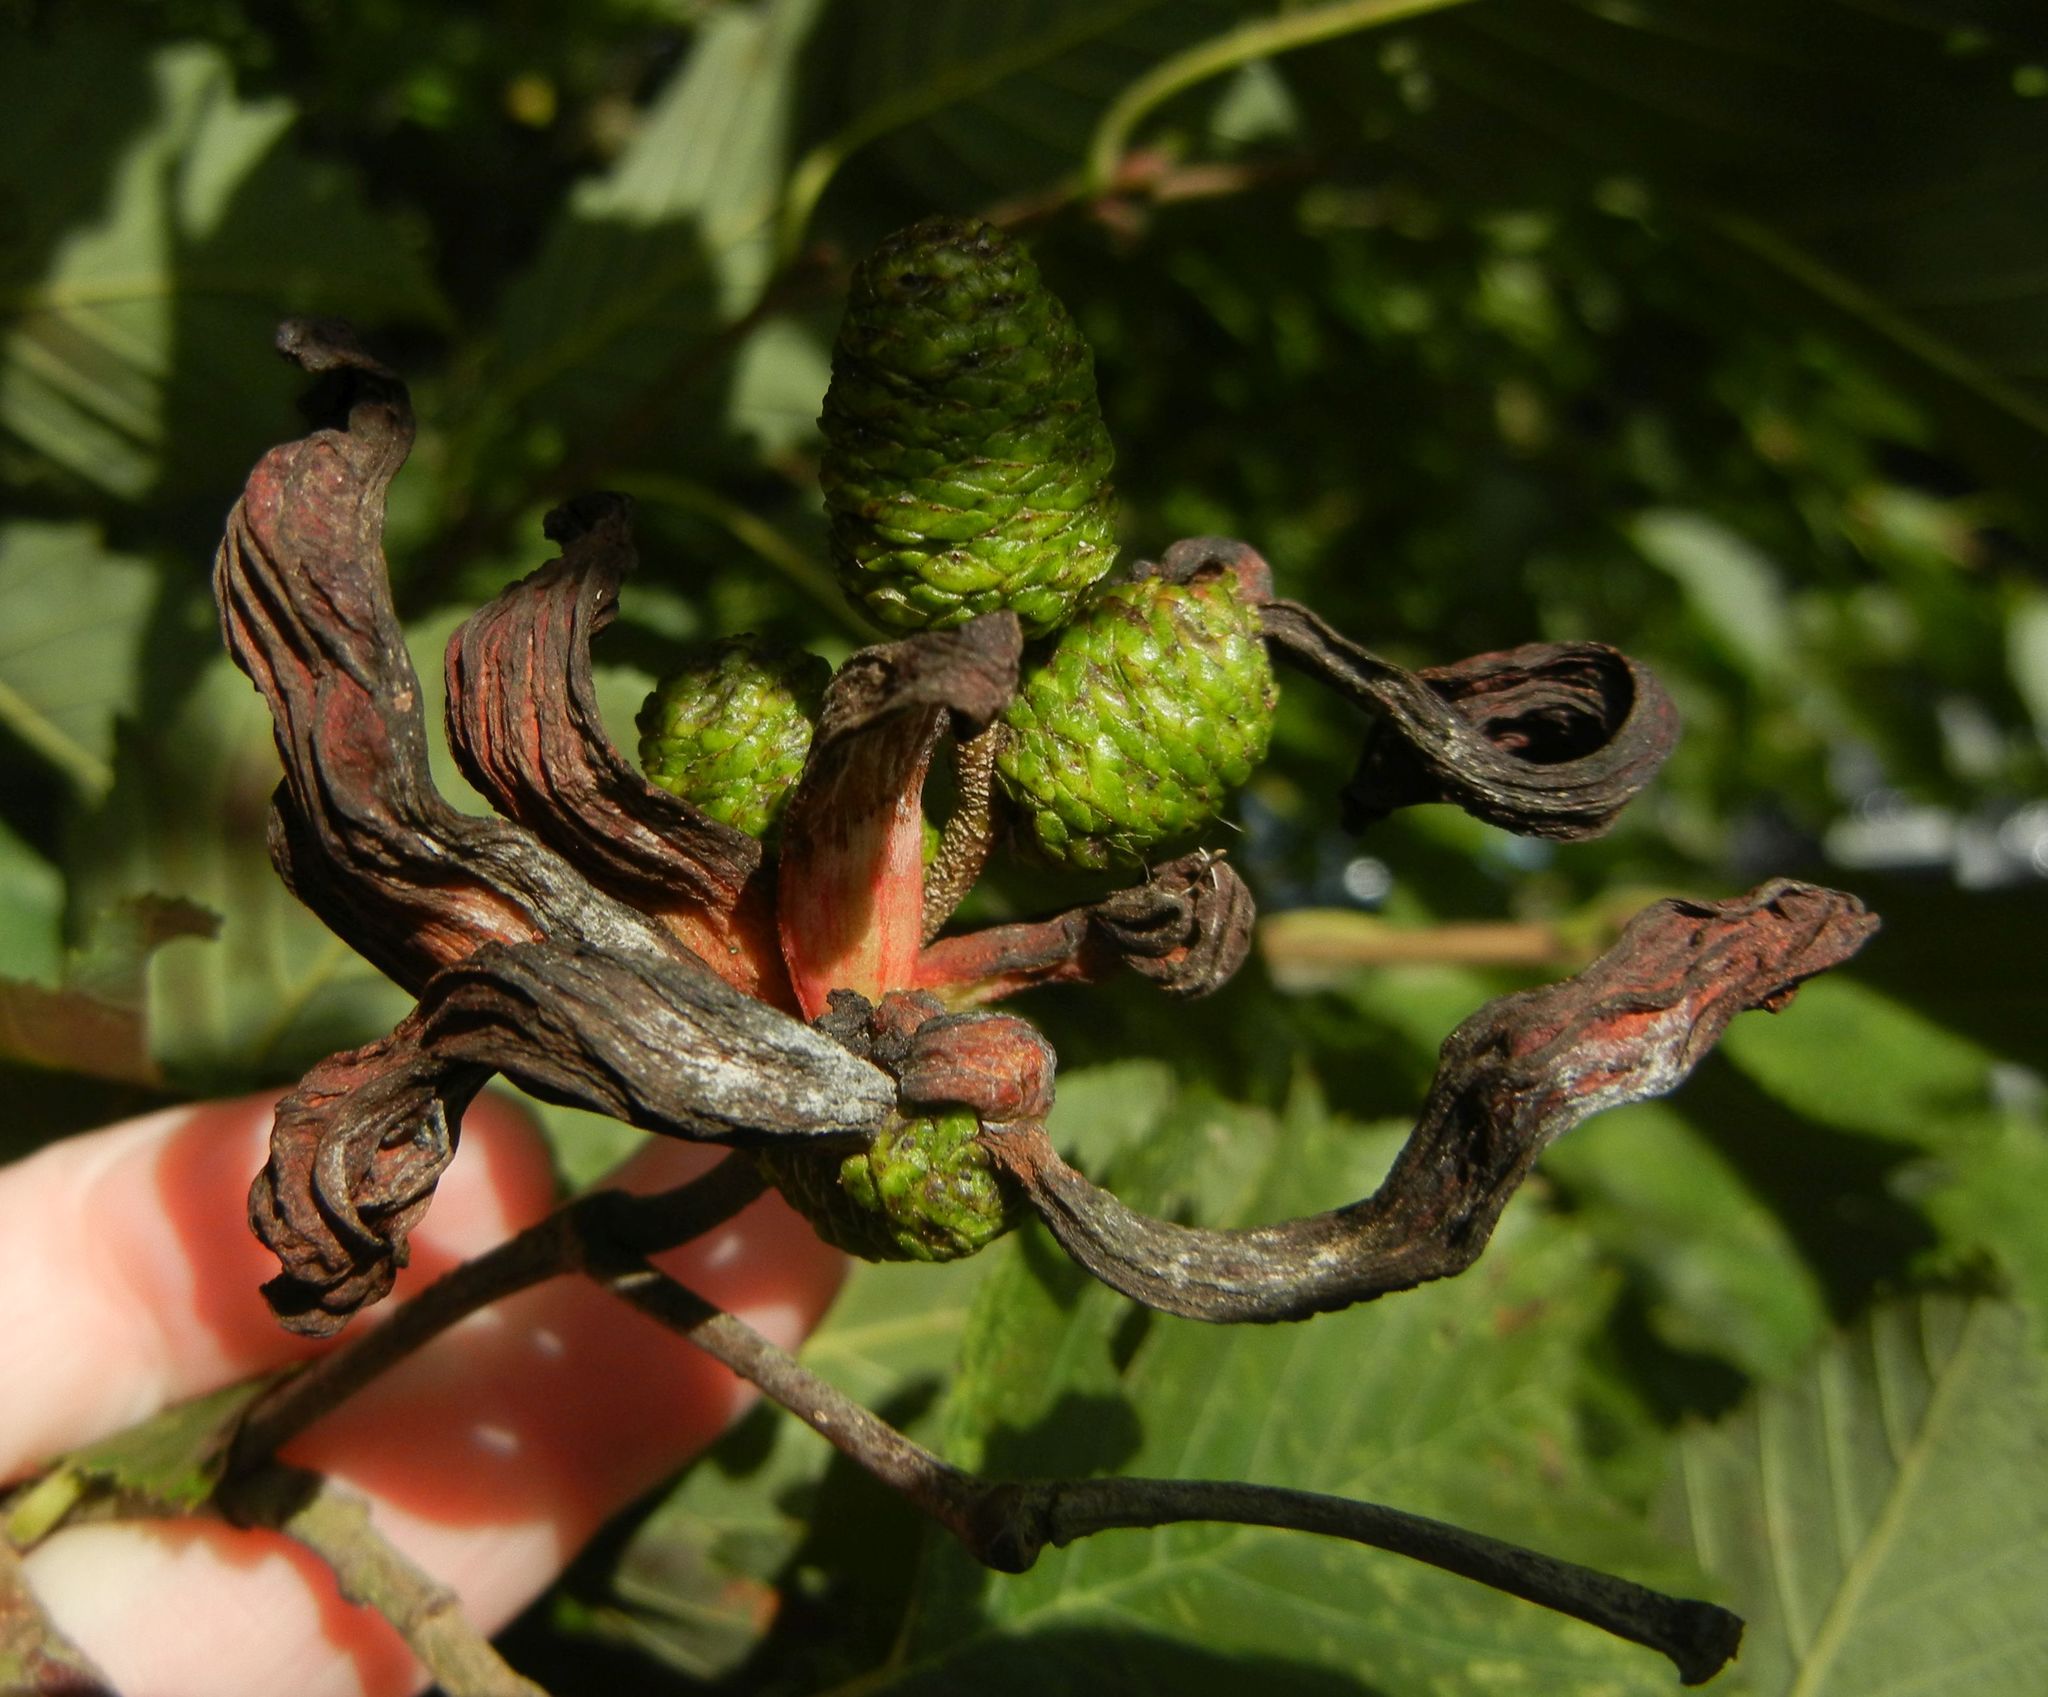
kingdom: Fungi
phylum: Ascomycota
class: Taphrinomycetes
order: Taphrinales
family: Taphrinaceae
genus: Taphrina
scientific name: Taphrina alni
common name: Alder tongue
